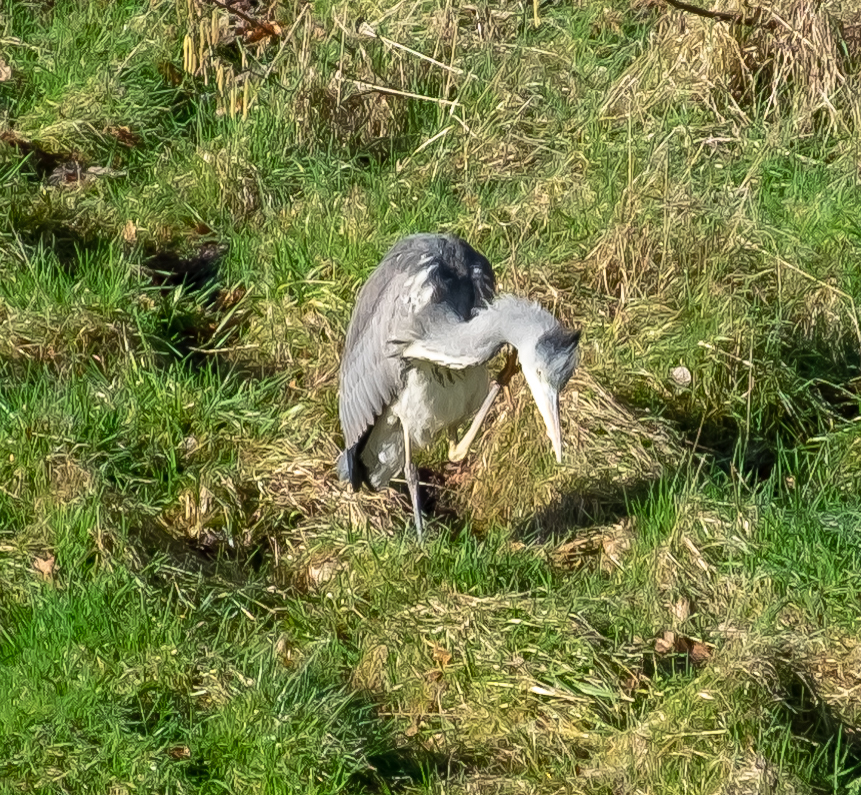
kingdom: Animalia
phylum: Chordata
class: Aves
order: Pelecaniformes
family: Ardeidae
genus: Ardea
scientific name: Ardea cinerea
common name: Grey heron
